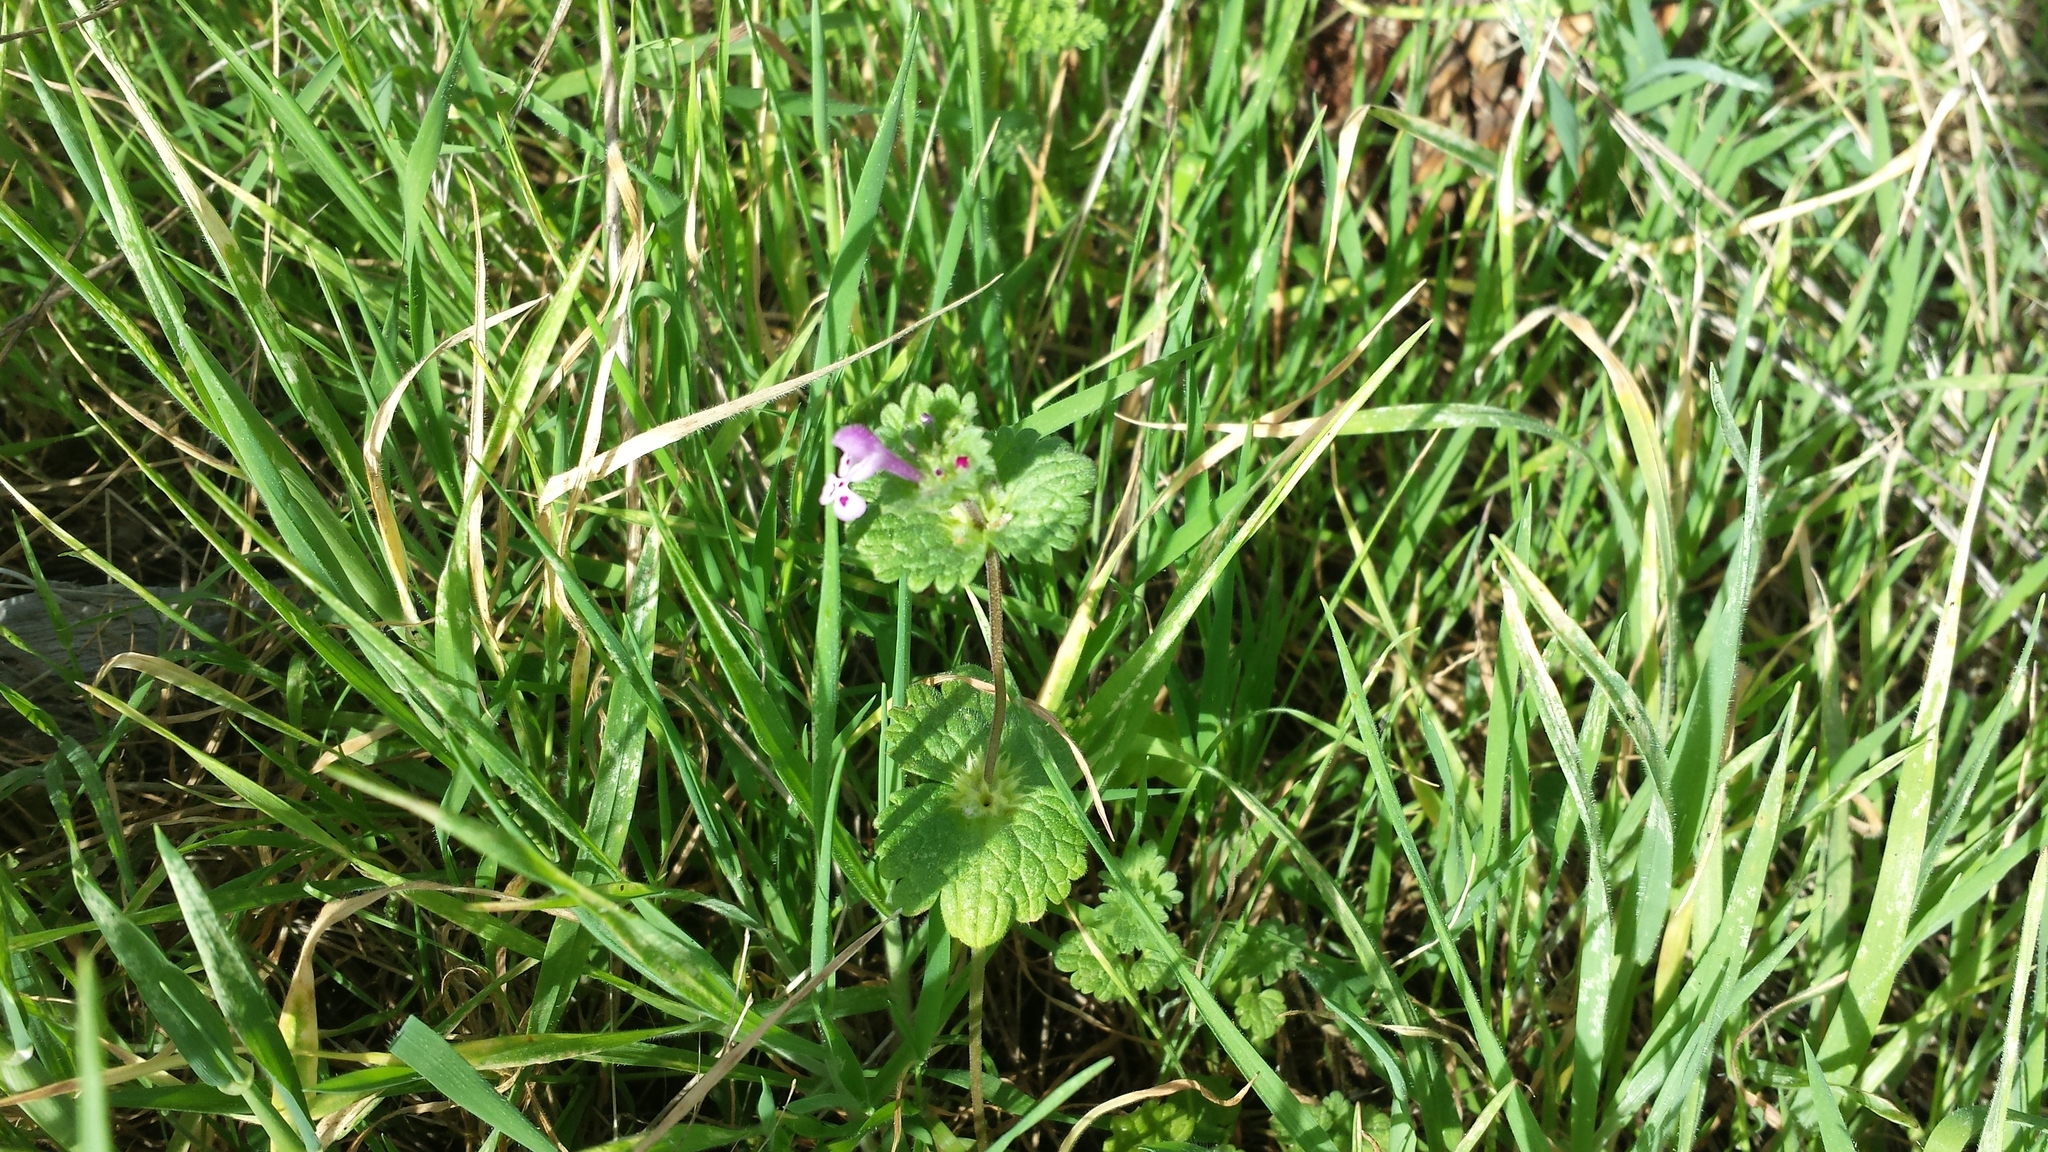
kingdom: Plantae
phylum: Tracheophyta
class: Magnoliopsida
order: Lamiales
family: Lamiaceae
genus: Lamium
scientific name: Lamium amplexicaule
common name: Henbit dead-nettle
